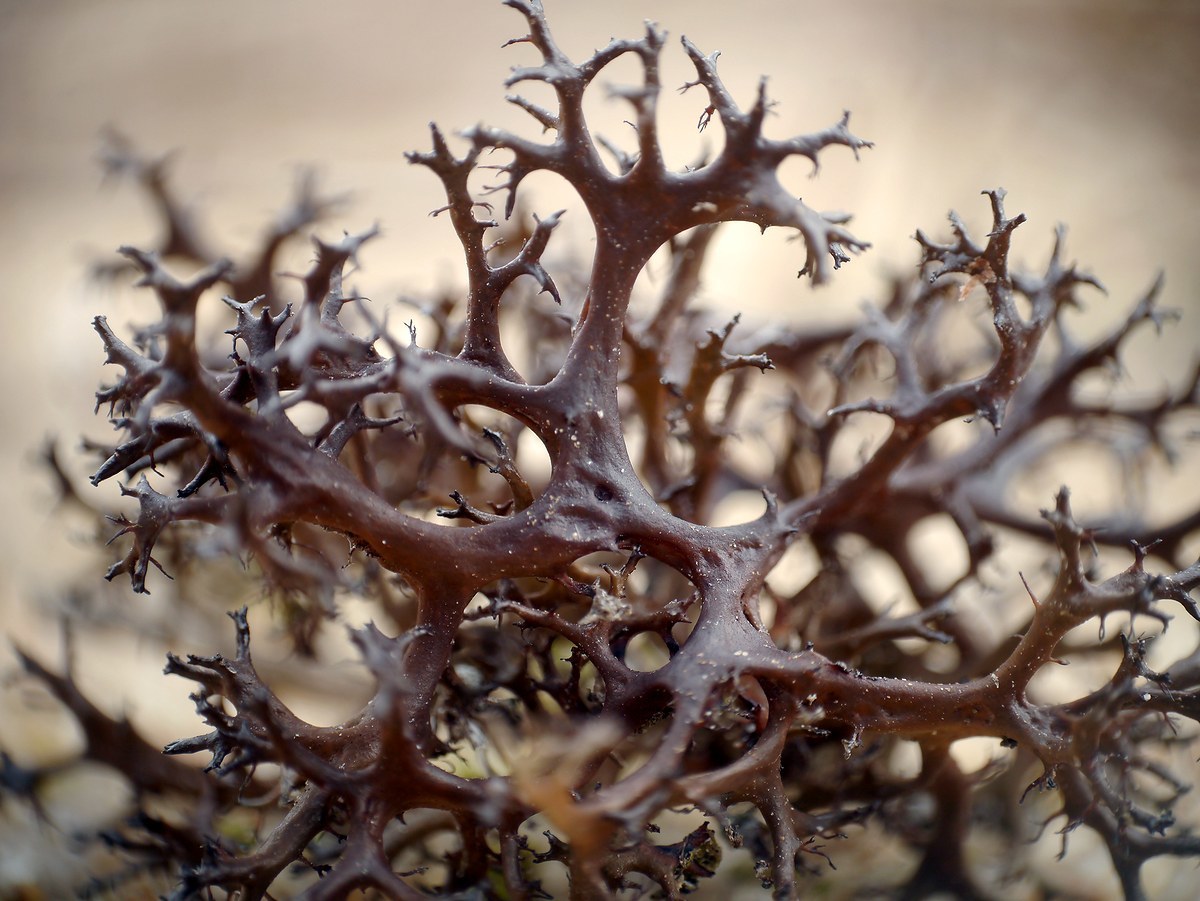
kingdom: Fungi
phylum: Ascomycota
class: Lecanoromycetes
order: Lecanorales
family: Parmeliaceae
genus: Cetraria
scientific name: Cetraria steppae
